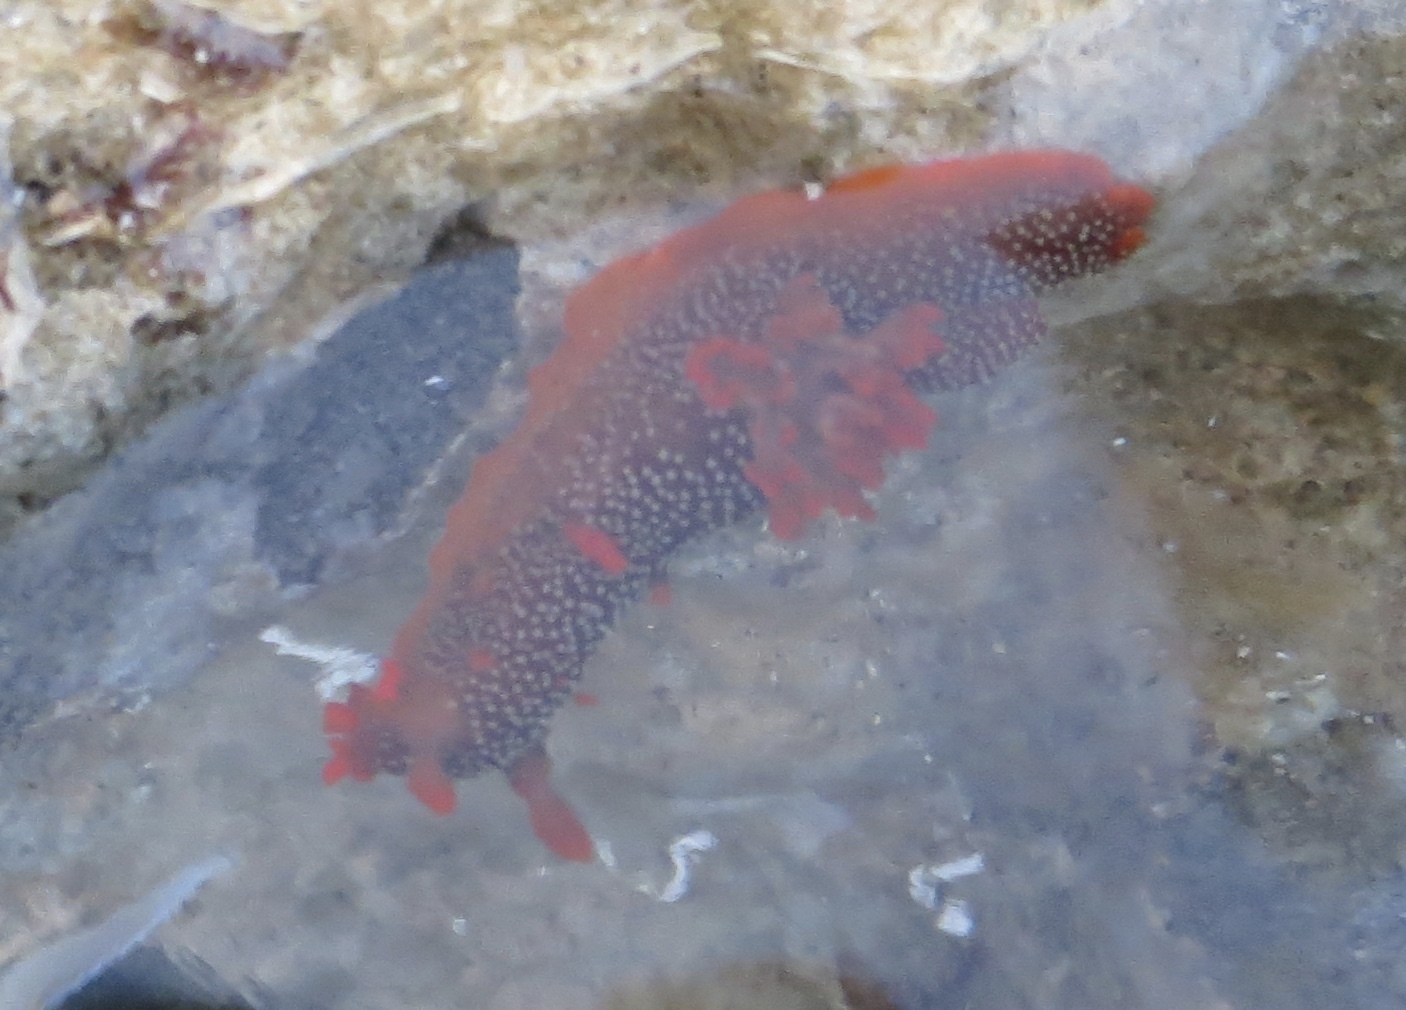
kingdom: Animalia
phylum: Mollusca
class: Gastropoda
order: Nudibranchia
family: Polyceridae
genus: Triopha
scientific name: Triopha maculata
